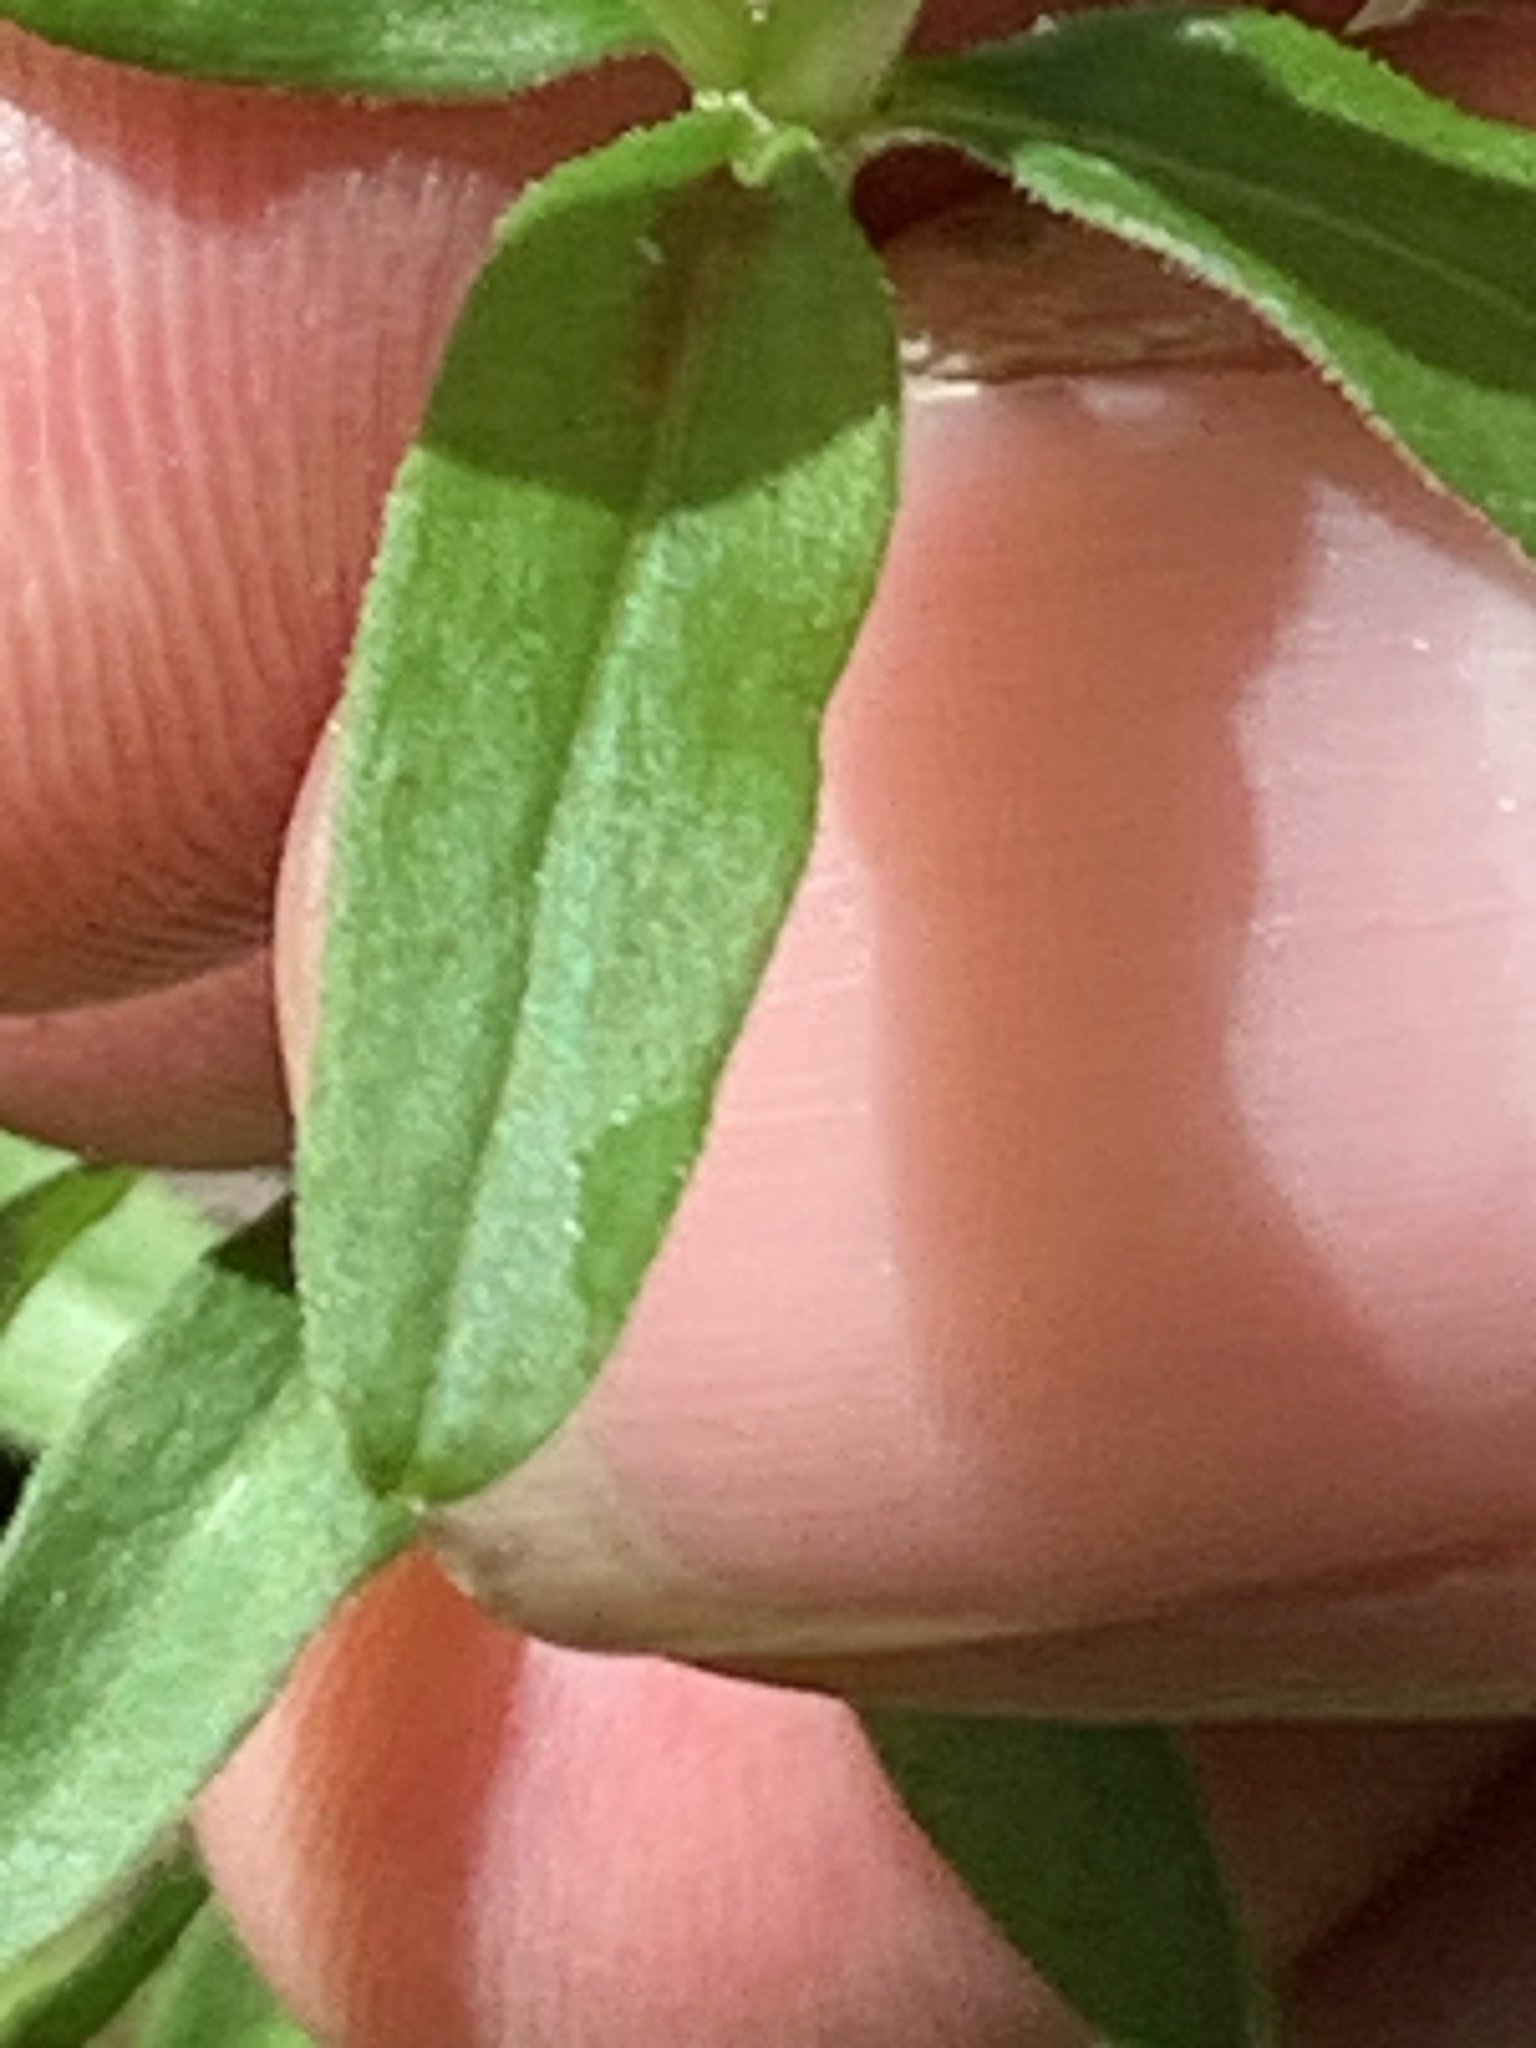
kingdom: Plantae
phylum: Tracheophyta
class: Magnoliopsida
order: Gentianales
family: Rubiaceae
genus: Galium
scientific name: Galium obtusum
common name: Blunt-leaved bedstraw
